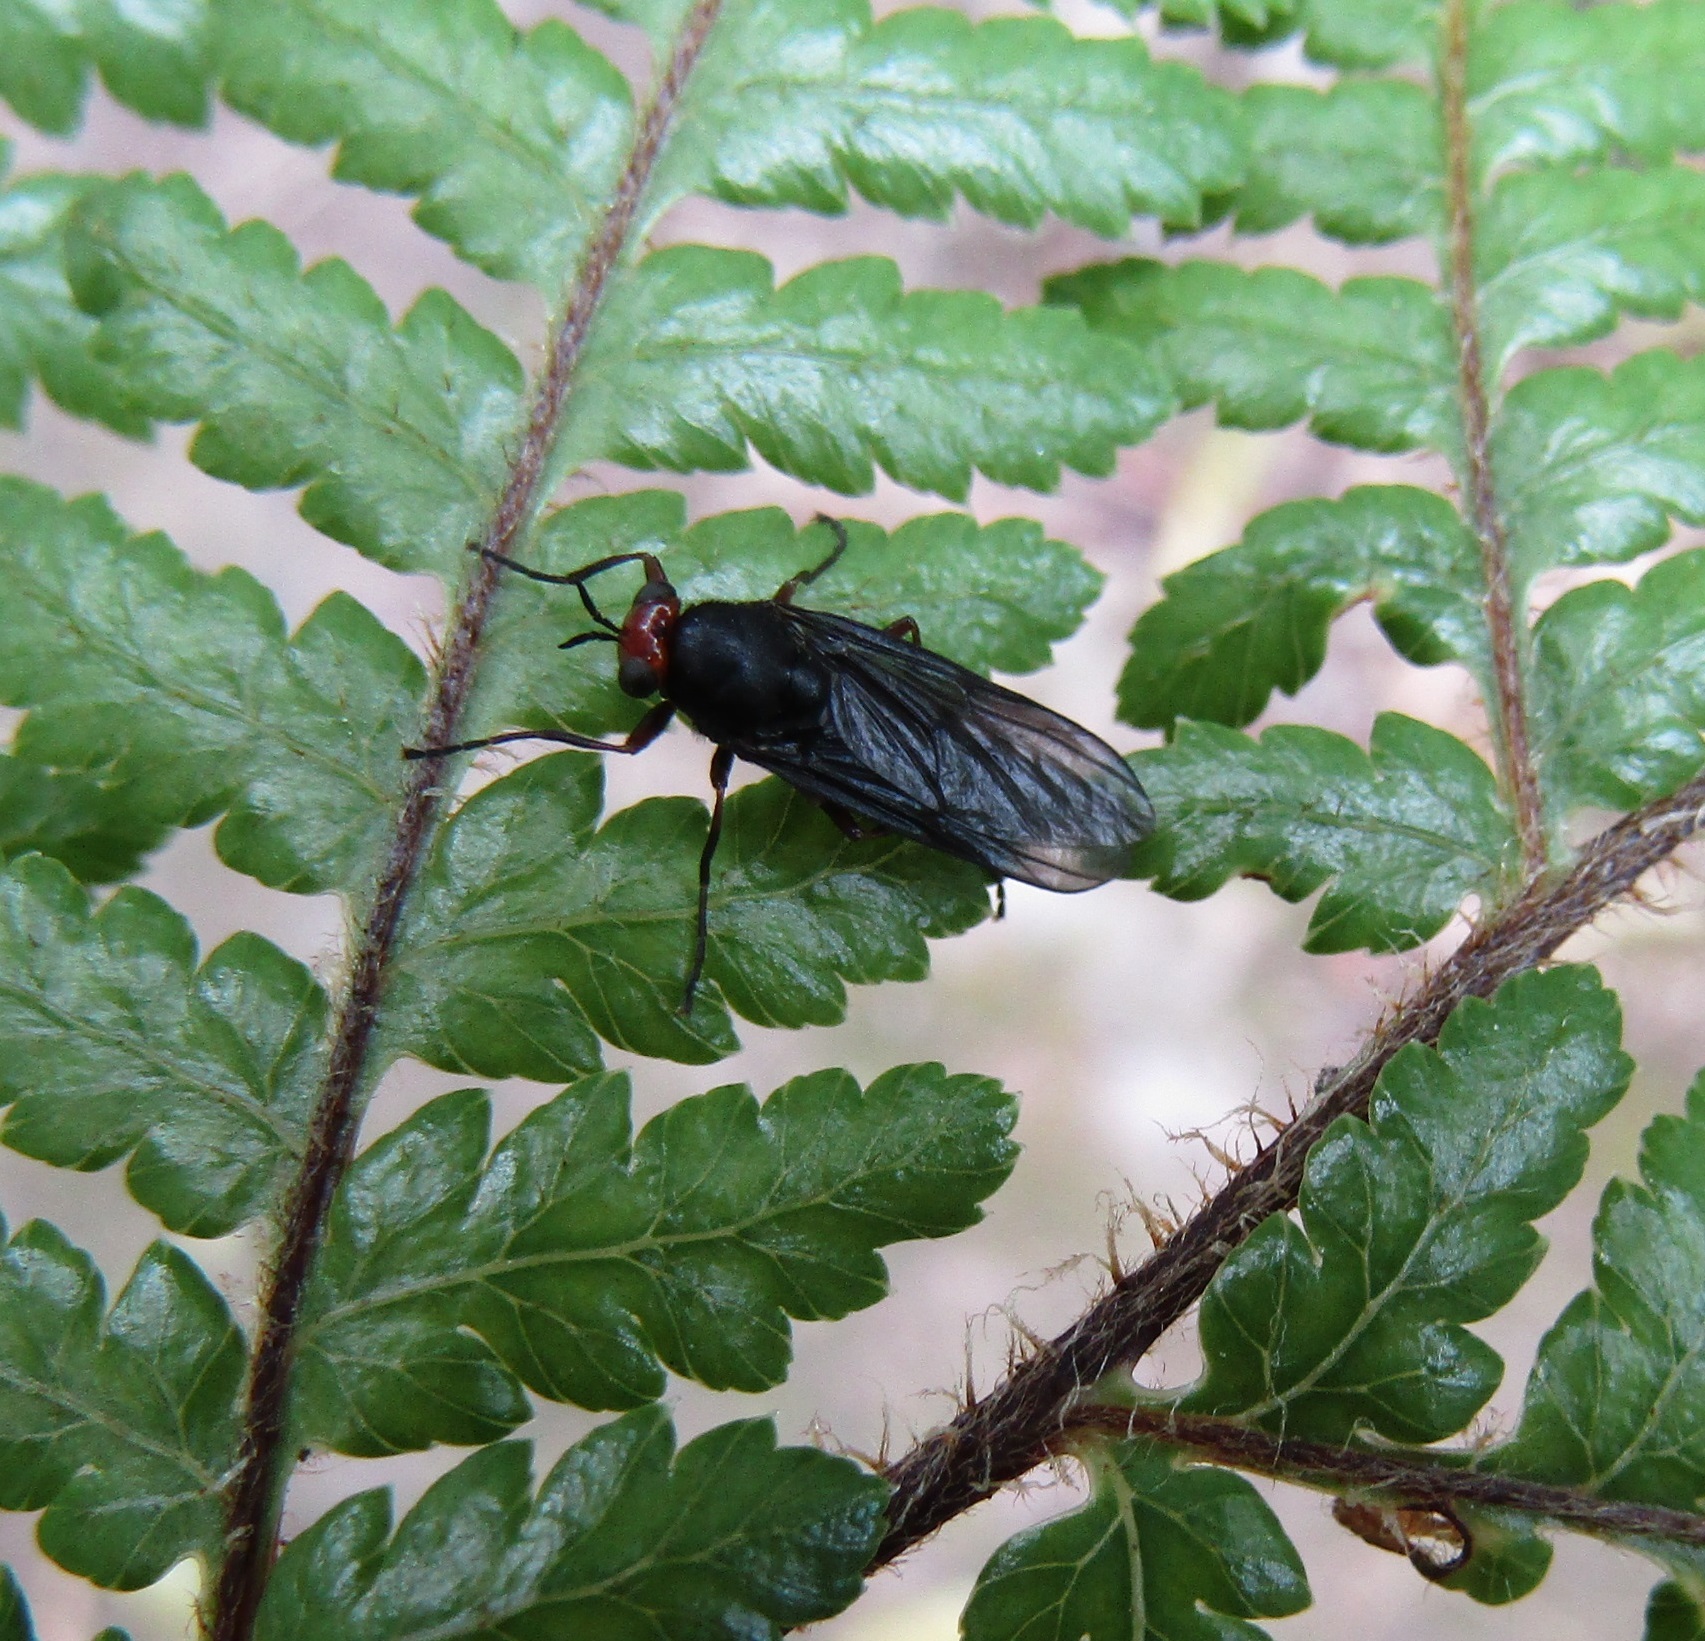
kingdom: Animalia
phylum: Arthropoda
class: Insecta
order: Diptera
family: Stratiomyidae
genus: Inopus
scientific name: Inopus rubriceps
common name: Soldier fly
